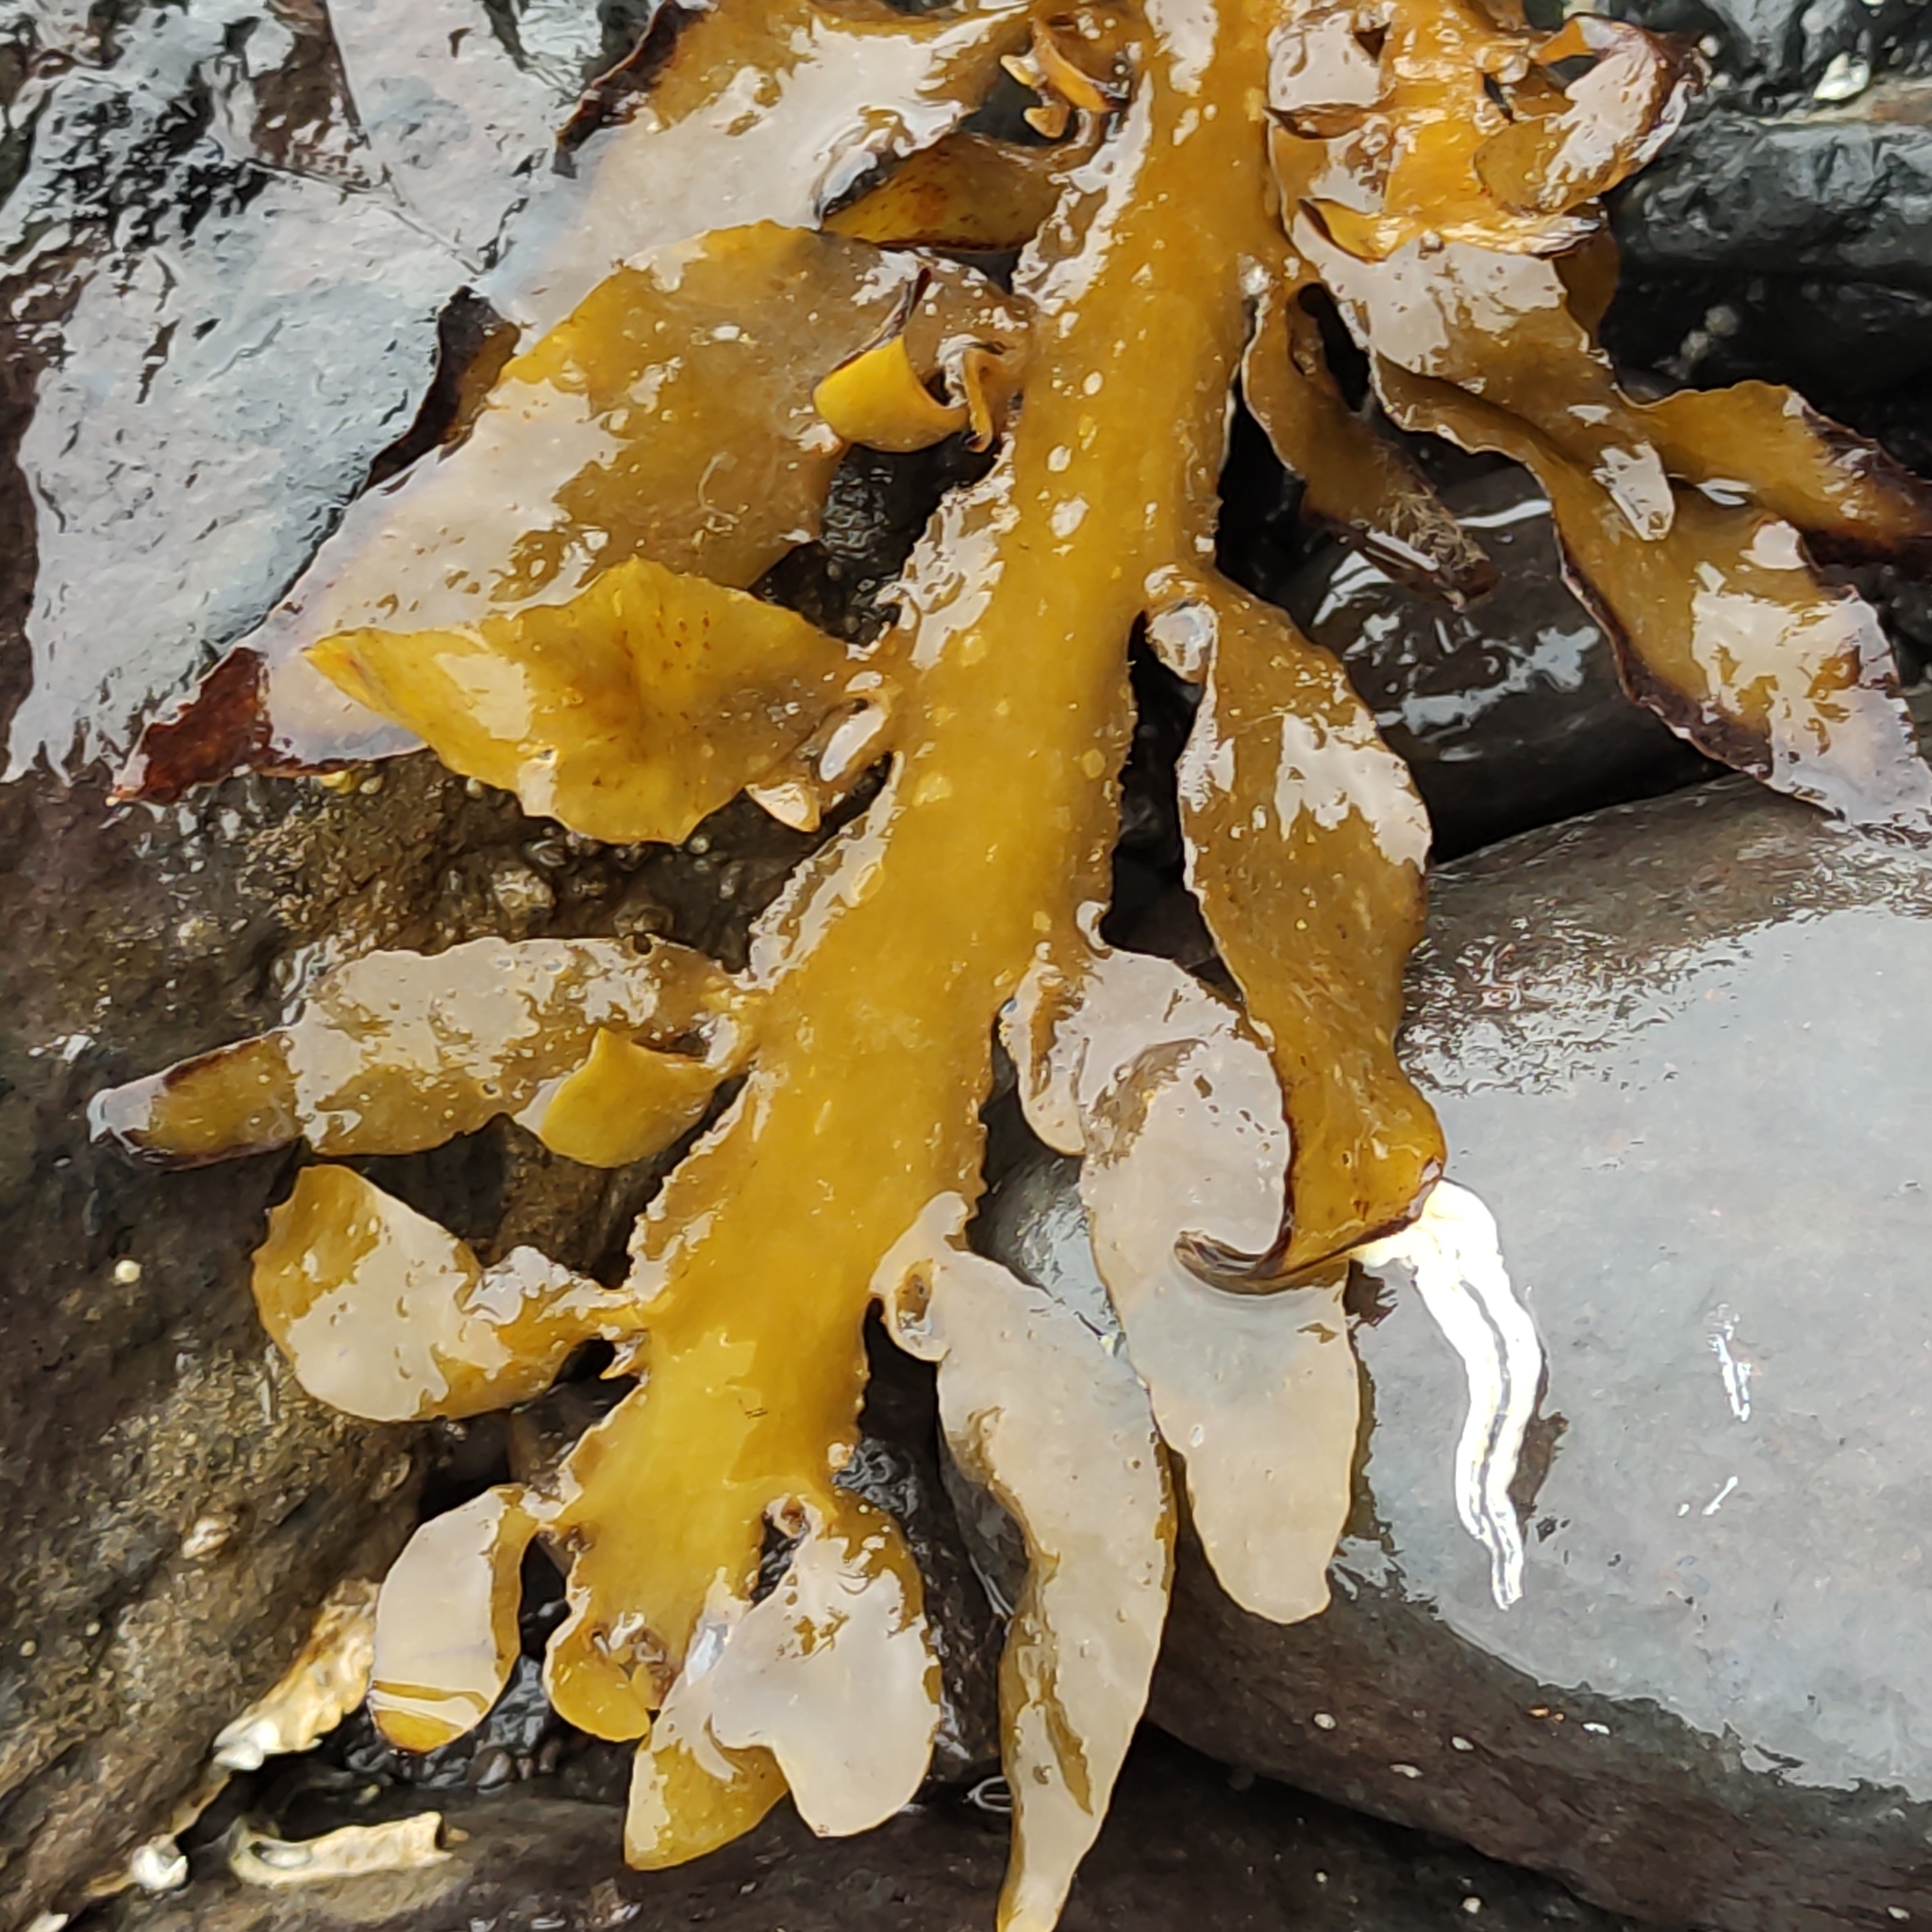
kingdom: Chromista
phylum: Ochrophyta
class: Phaeophyceae
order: Fucales
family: Sargassaceae
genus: Carpophyllum
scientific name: Carpophyllum maschalocarpum
